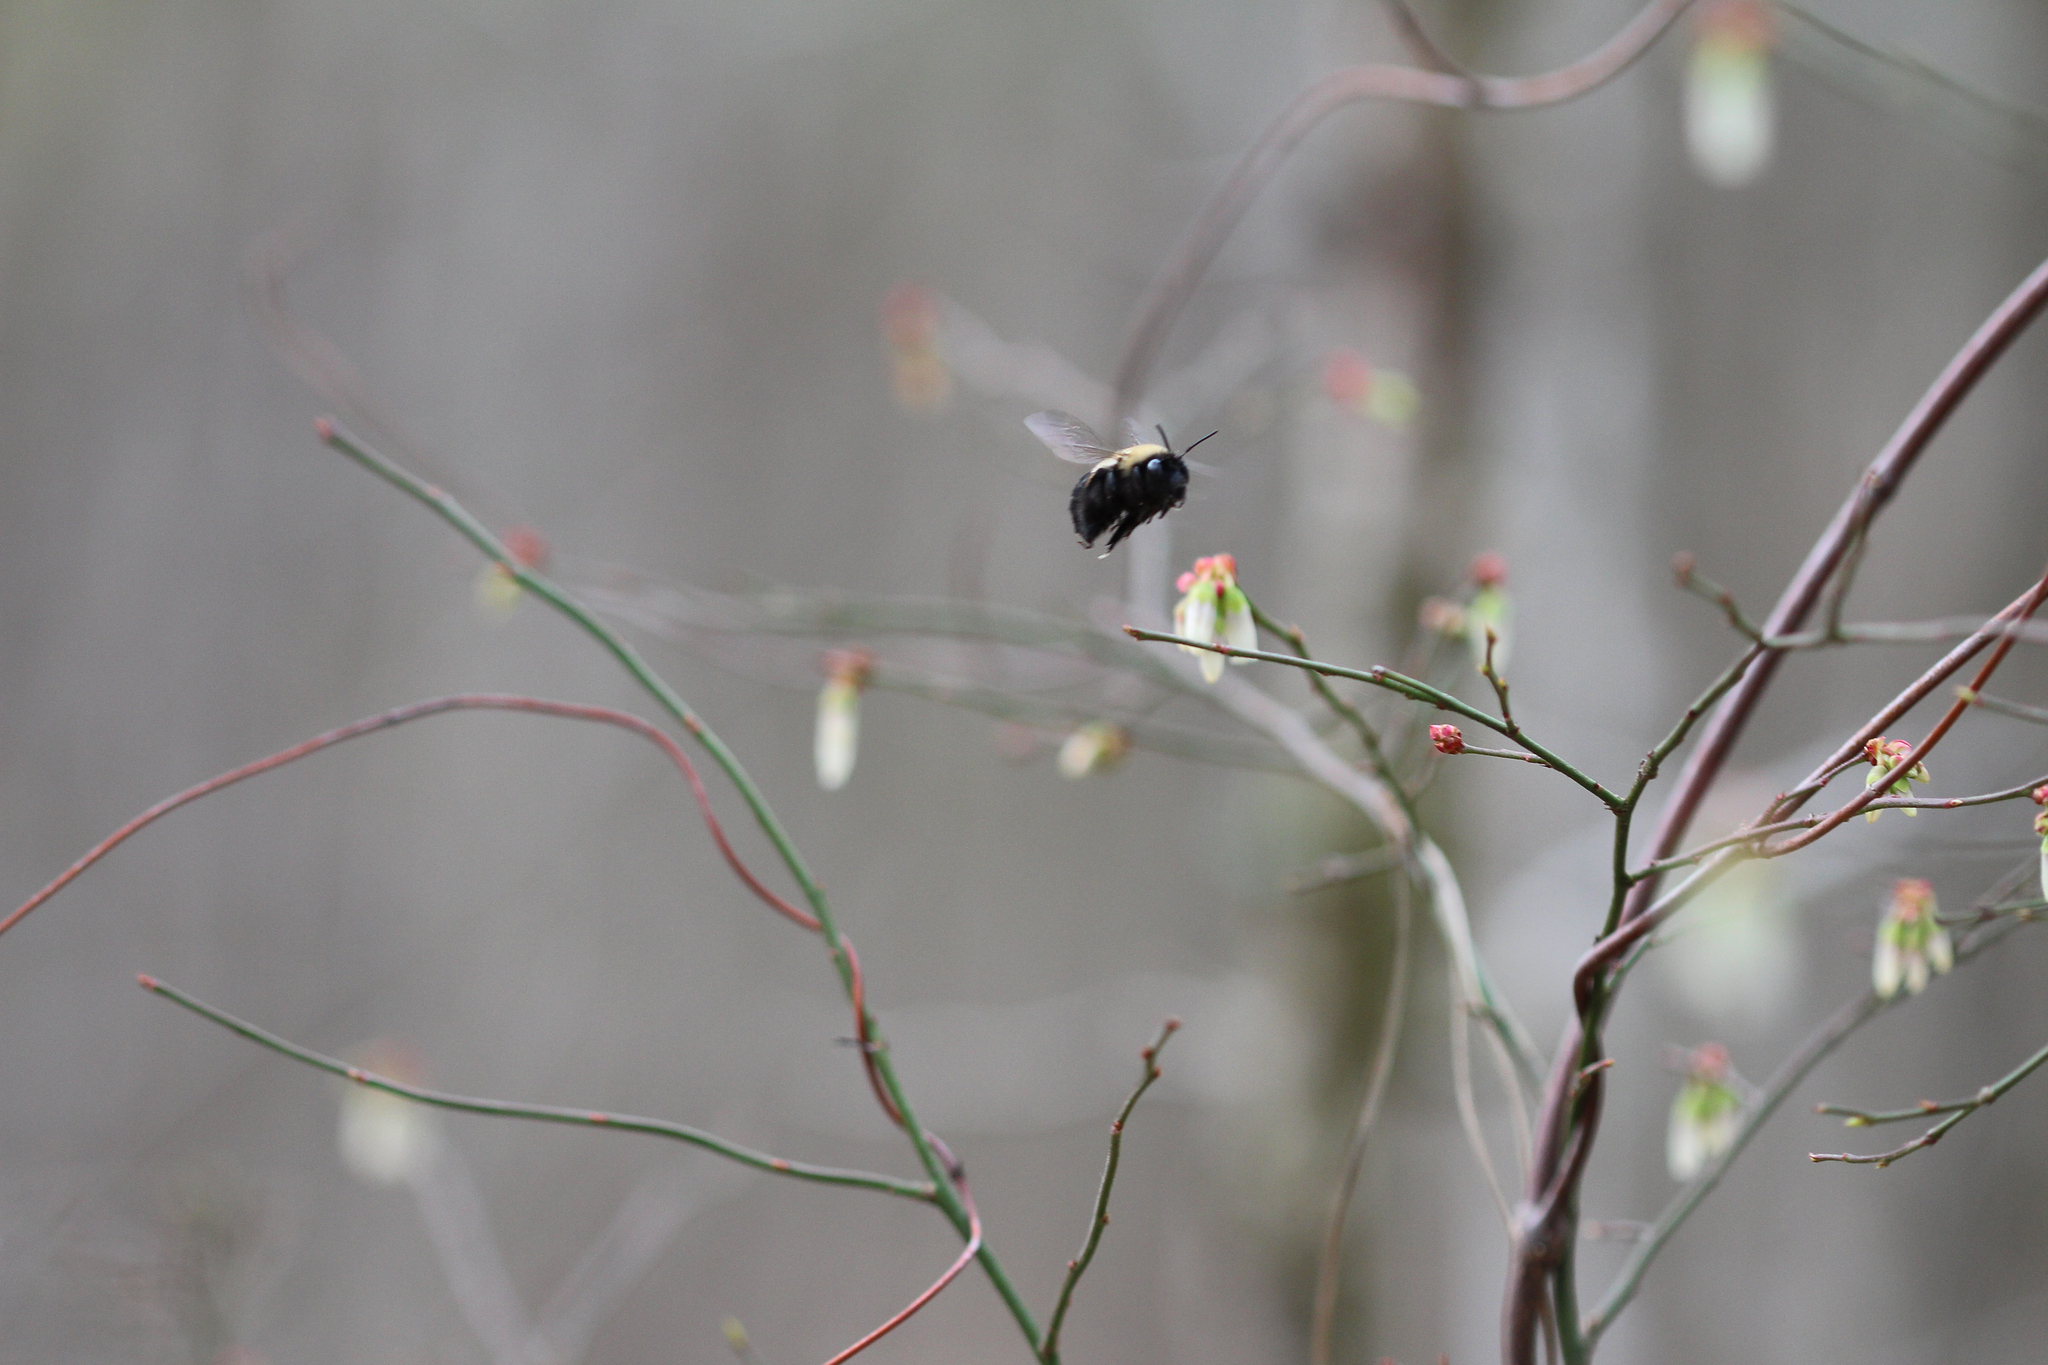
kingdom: Animalia
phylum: Arthropoda
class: Insecta
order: Hymenoptera
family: Apidae
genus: Habropoda
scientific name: Habropoda laboriosa
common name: Southeastern blueberry bee
